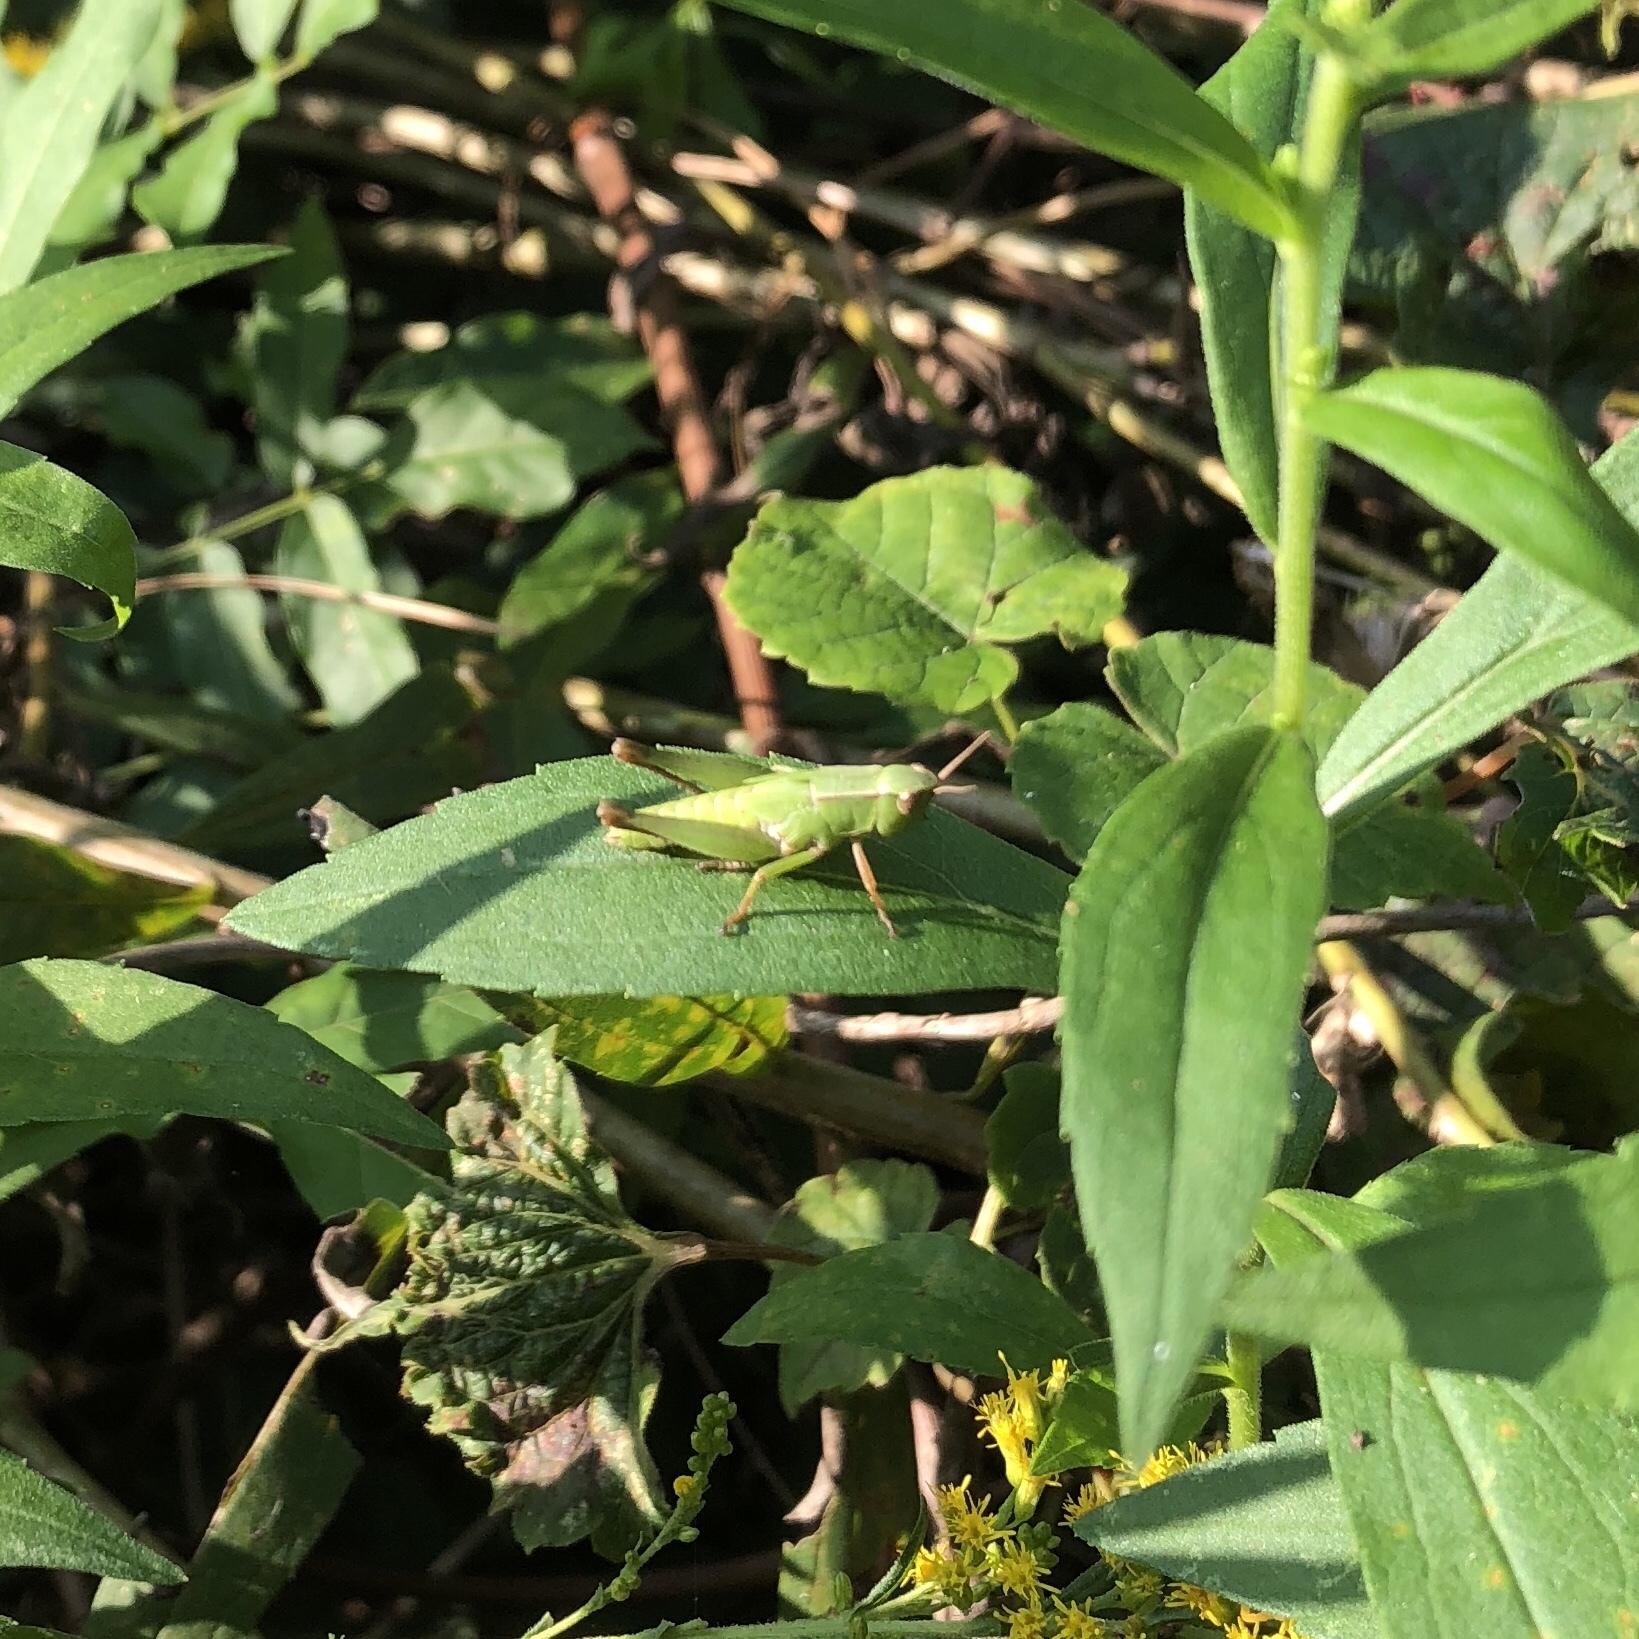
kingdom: Animalia
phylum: Arthropoda
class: Insecta
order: Orthoptera
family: Acrididae
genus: Dichromorpha
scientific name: Dichromorpha viridis
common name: Short-winged green grasshopper
